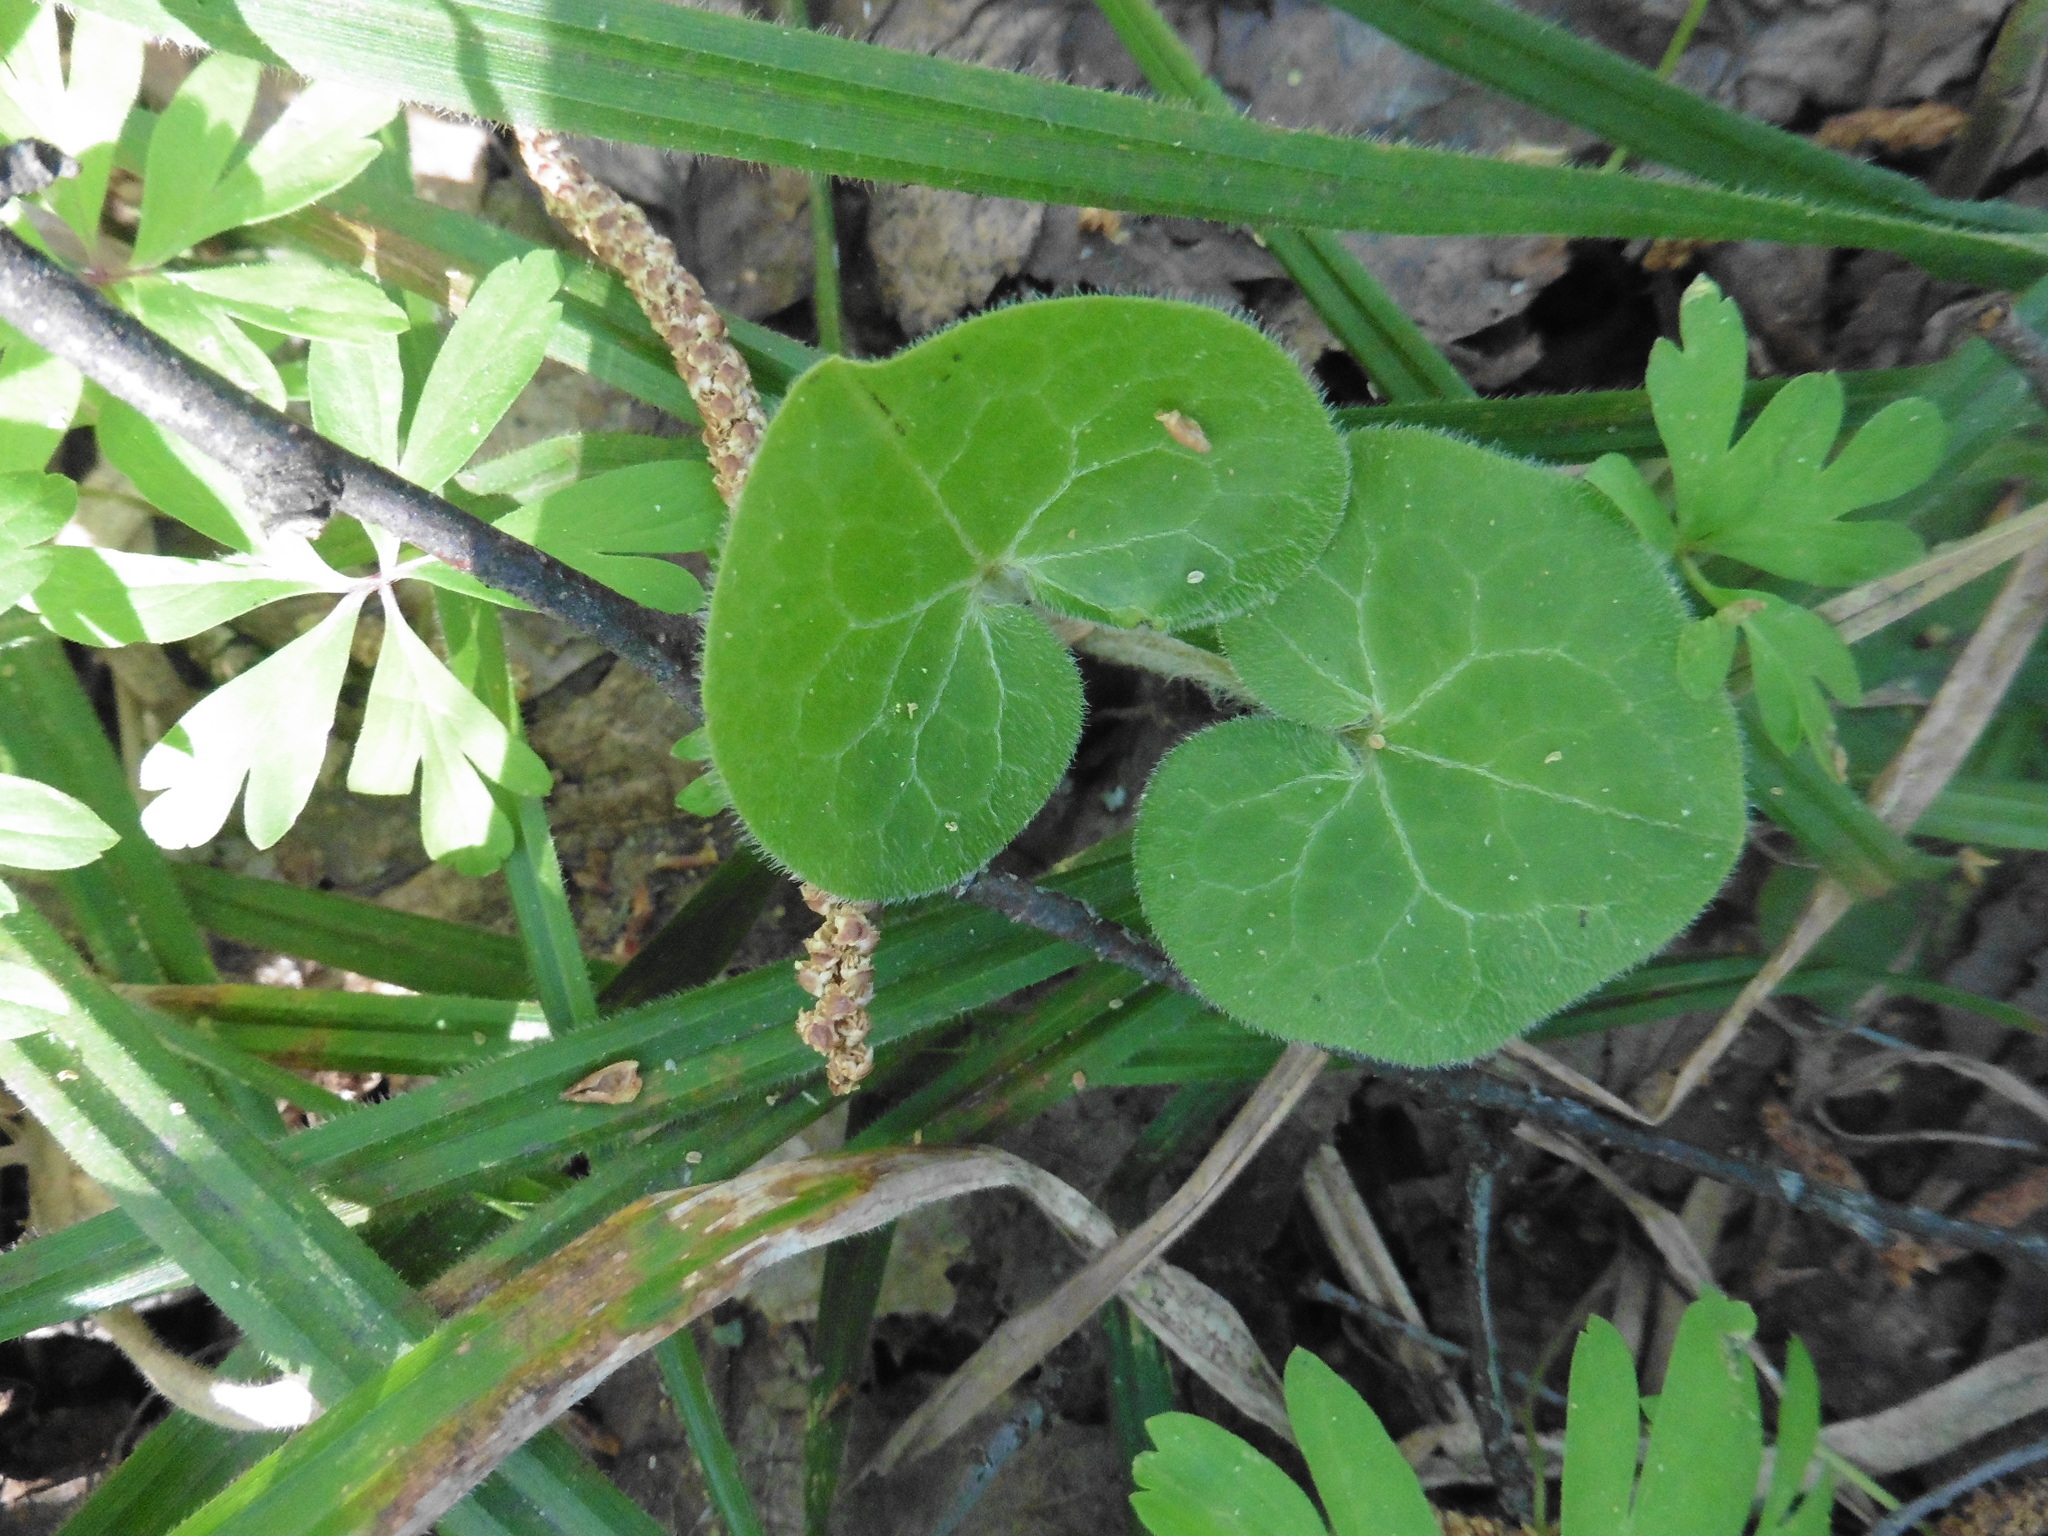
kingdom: Plantae
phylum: Tracheophyta
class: Magnoliopsida
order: Piperales
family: Aristolochiaceae
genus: Asarum
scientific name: Asarum europaeum
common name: Asarabacca
